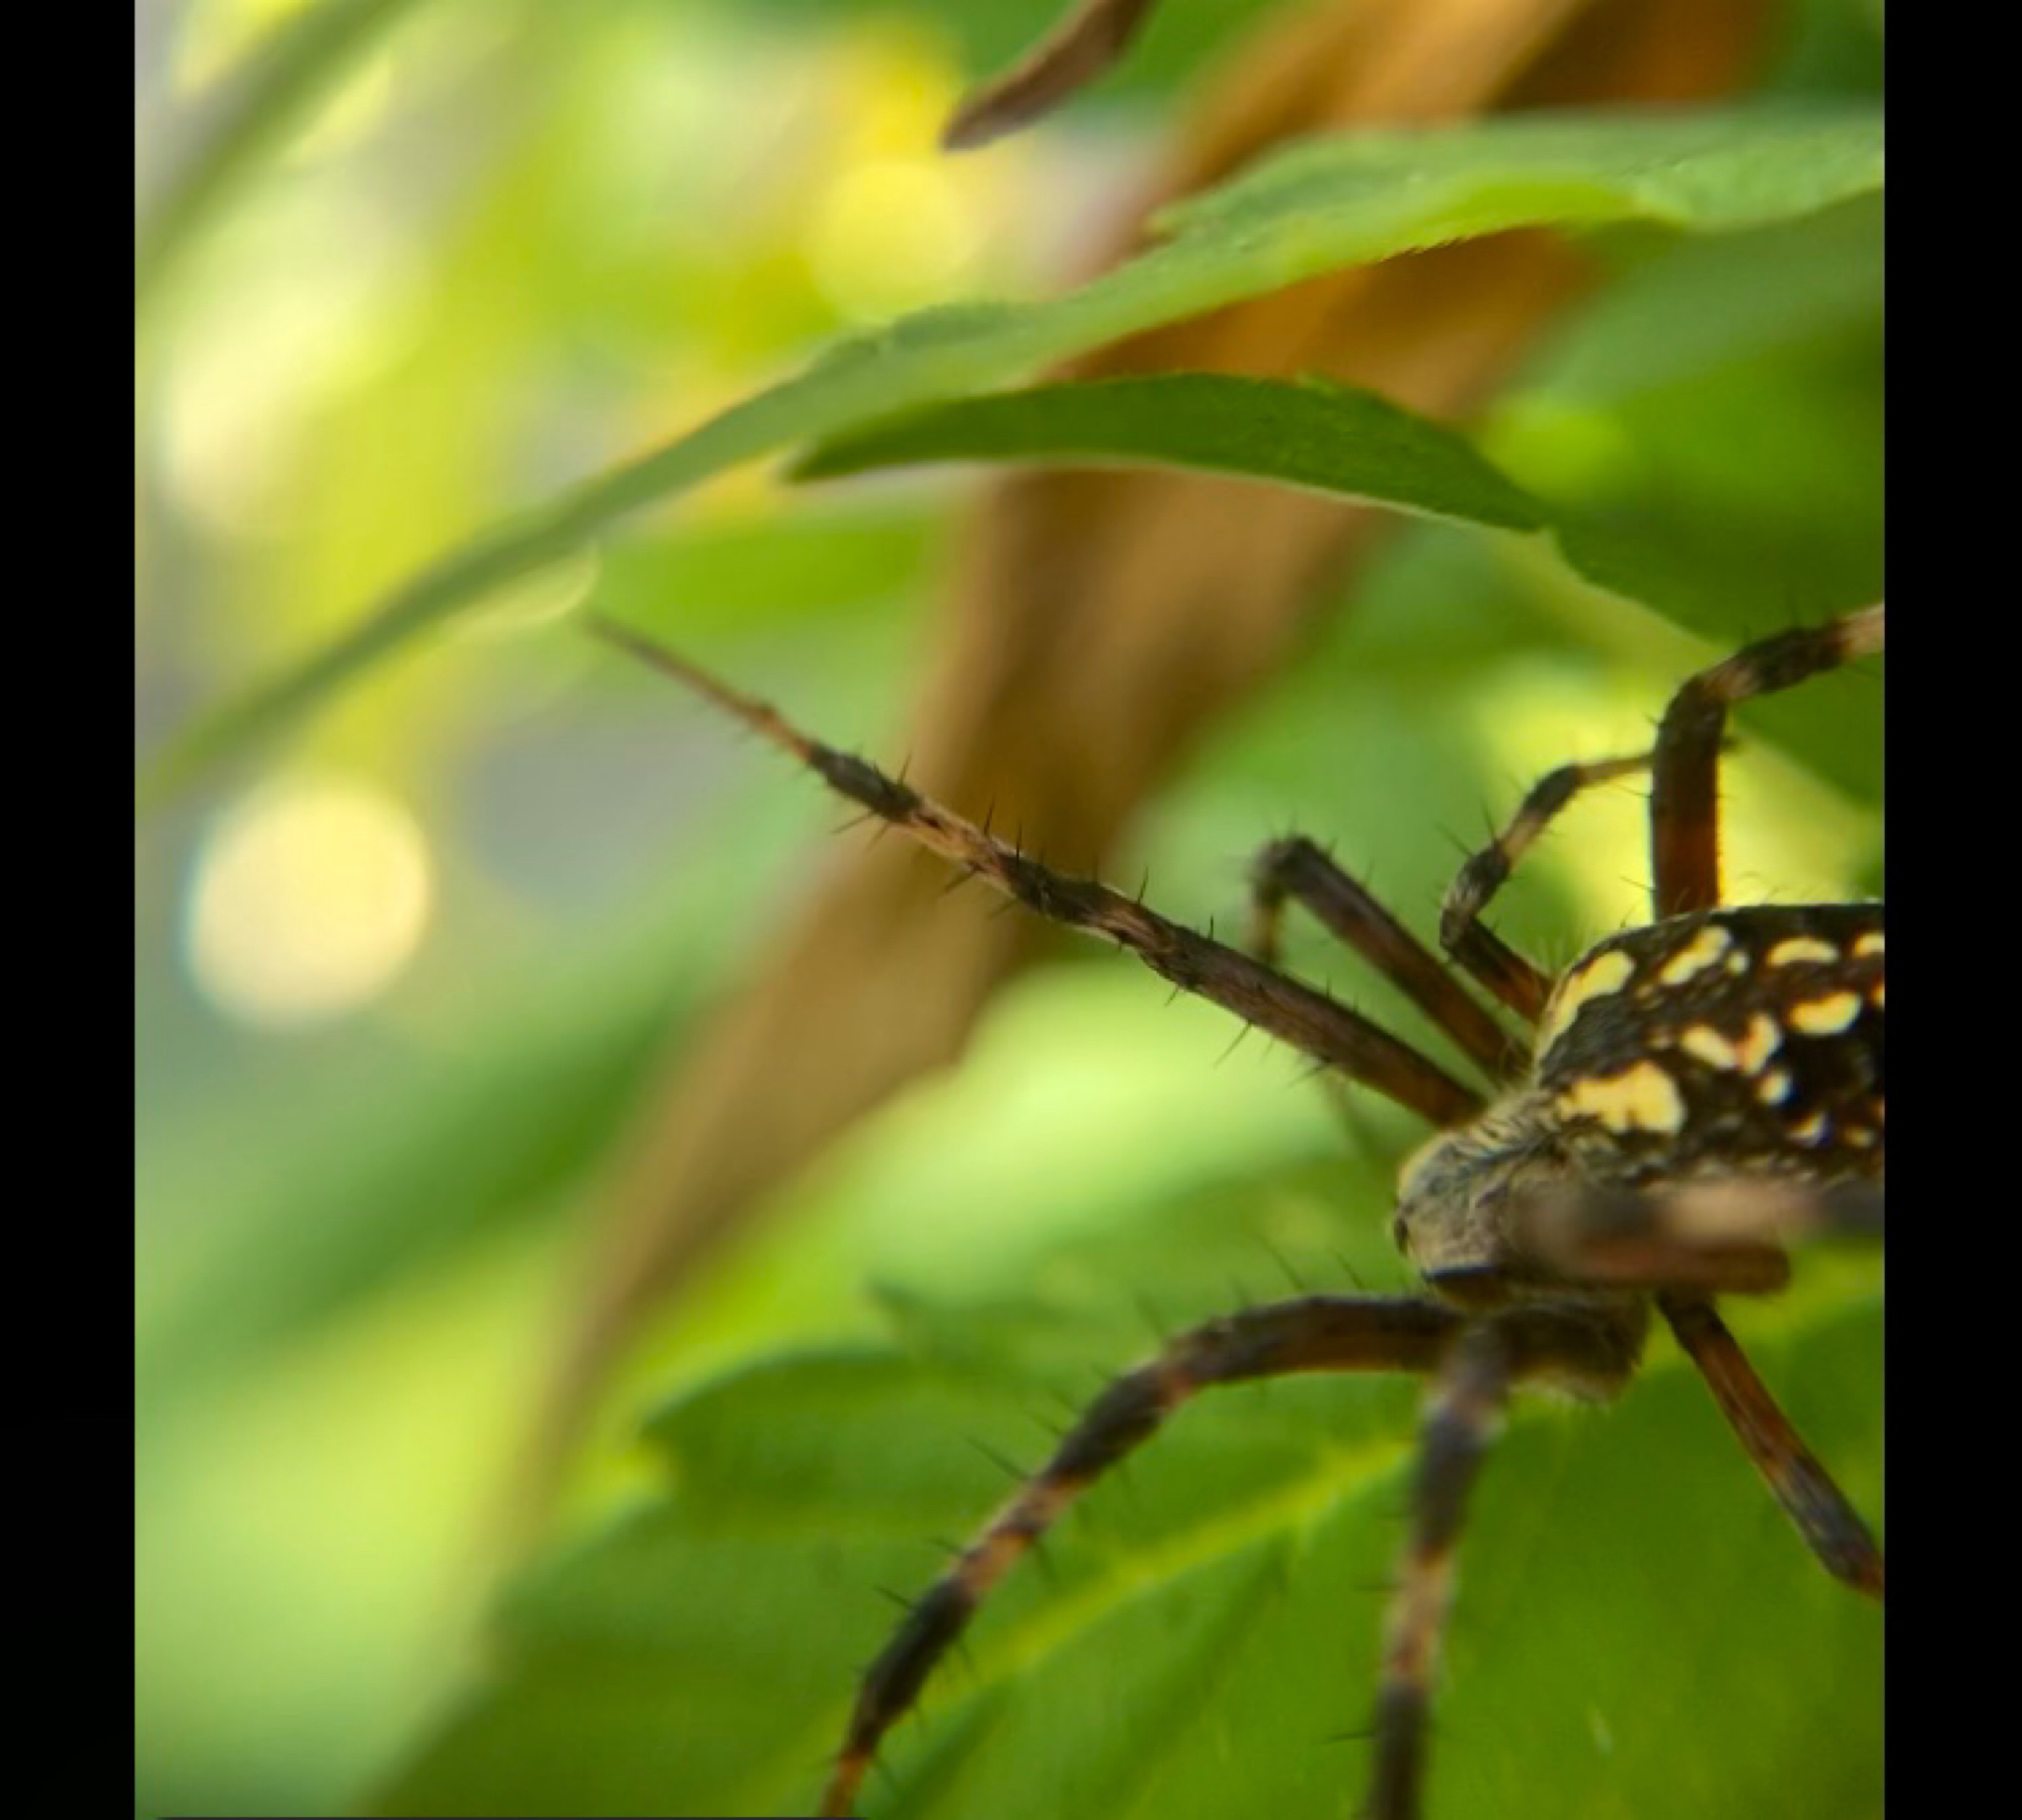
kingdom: Animalia
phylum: Arthropoda
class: Arachnida
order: Araneae
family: Araneidae
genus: Neoscona
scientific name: Neoscona oaxacensis
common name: Orb weavers
